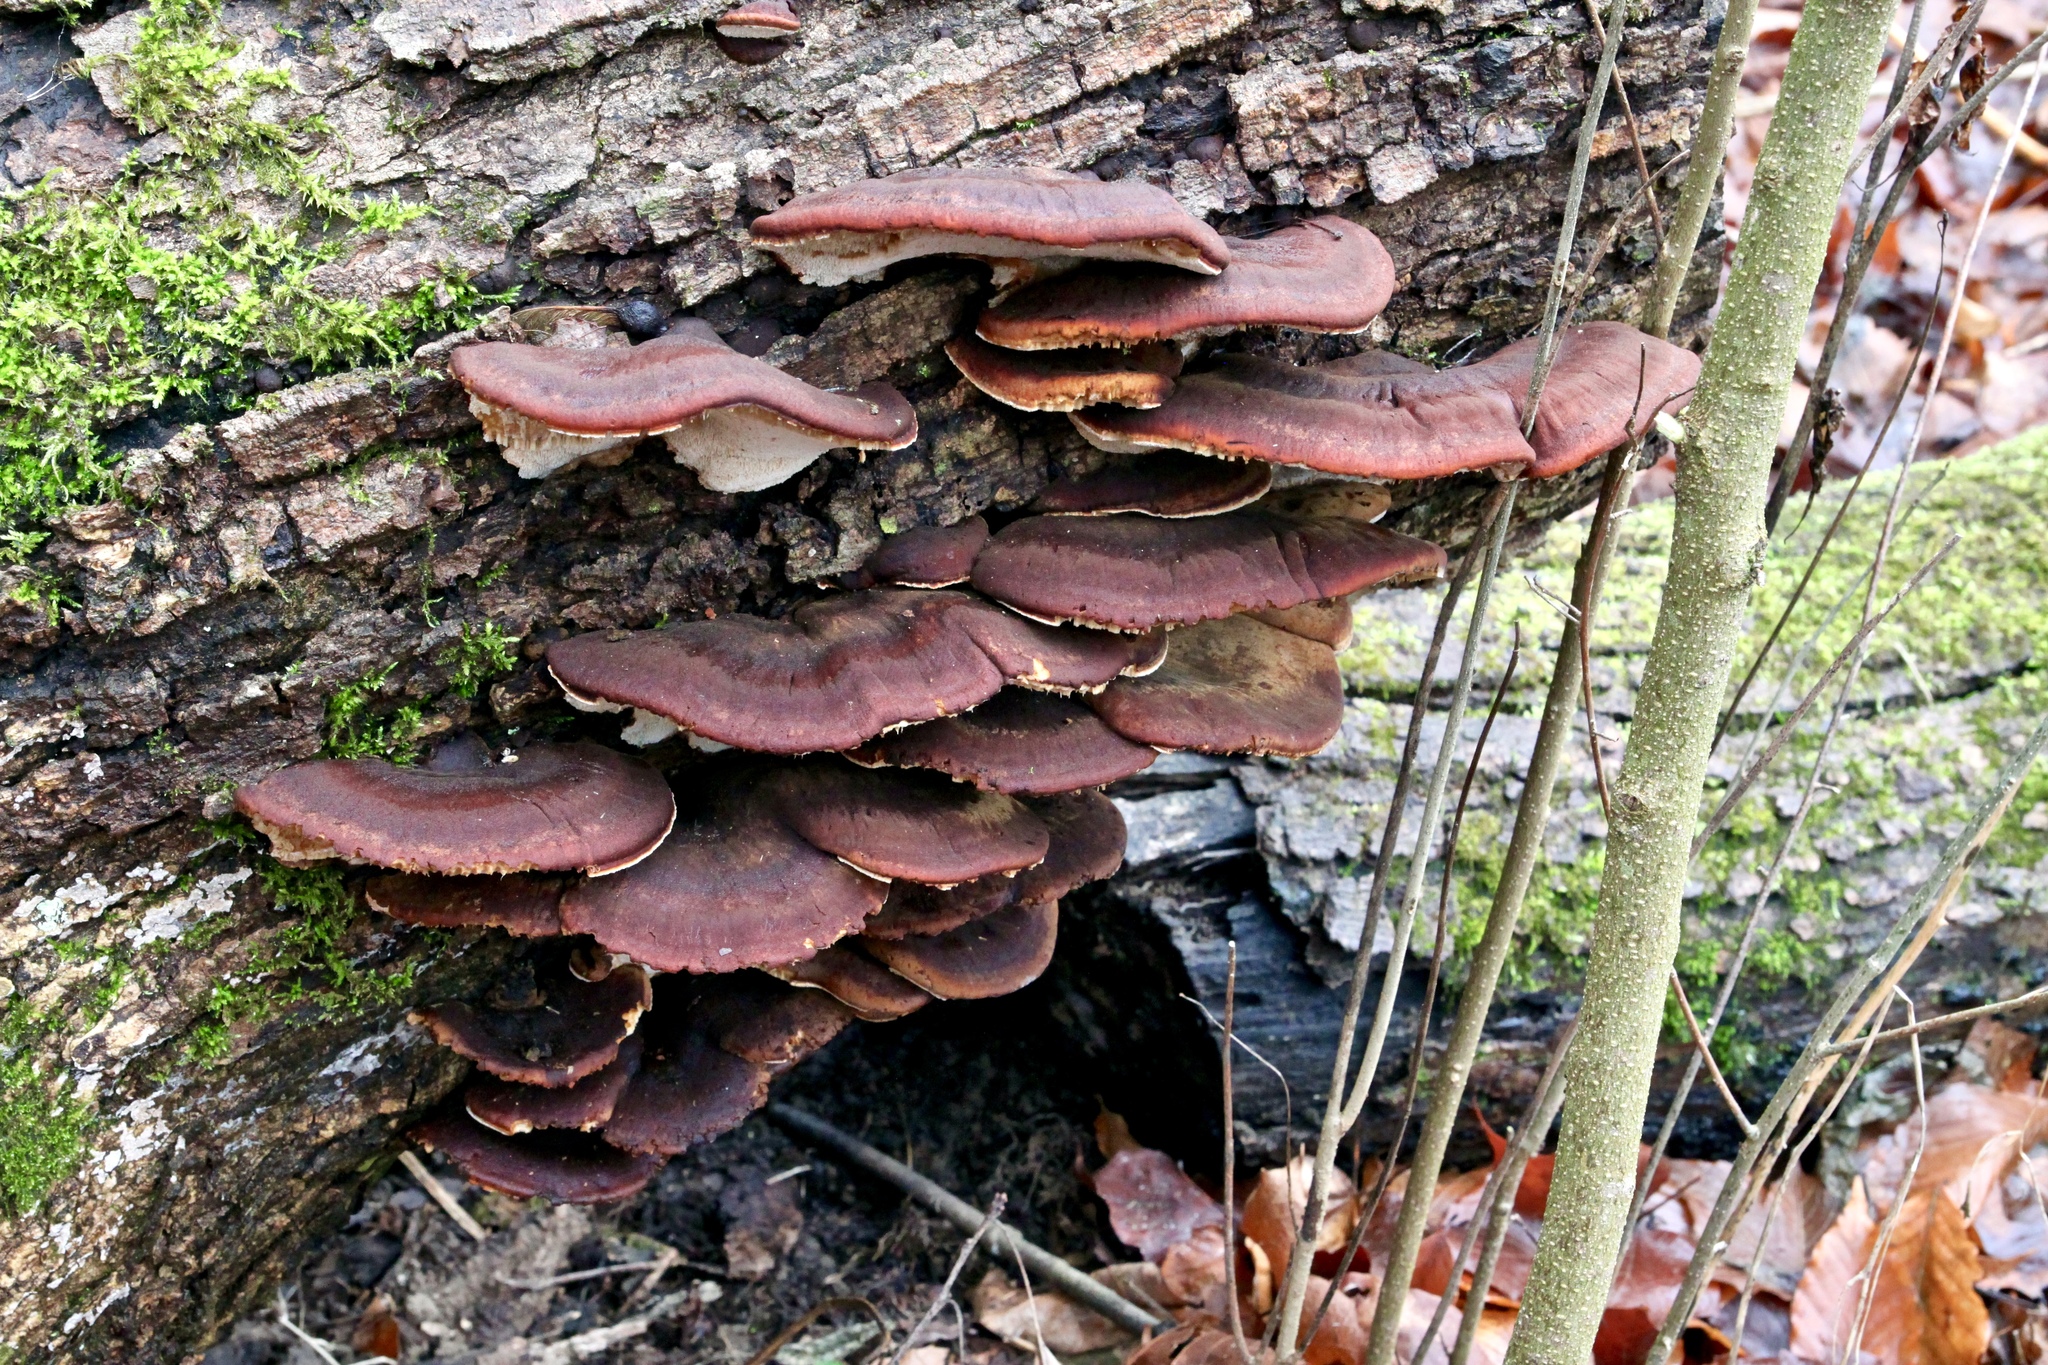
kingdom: Fungi
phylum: Basidiomycota
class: Agaricomycetes
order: Polyporales
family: Ischnodermataceae
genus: Ischnoderma
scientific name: Ischnoderma resinosum
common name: Resinous polypore
